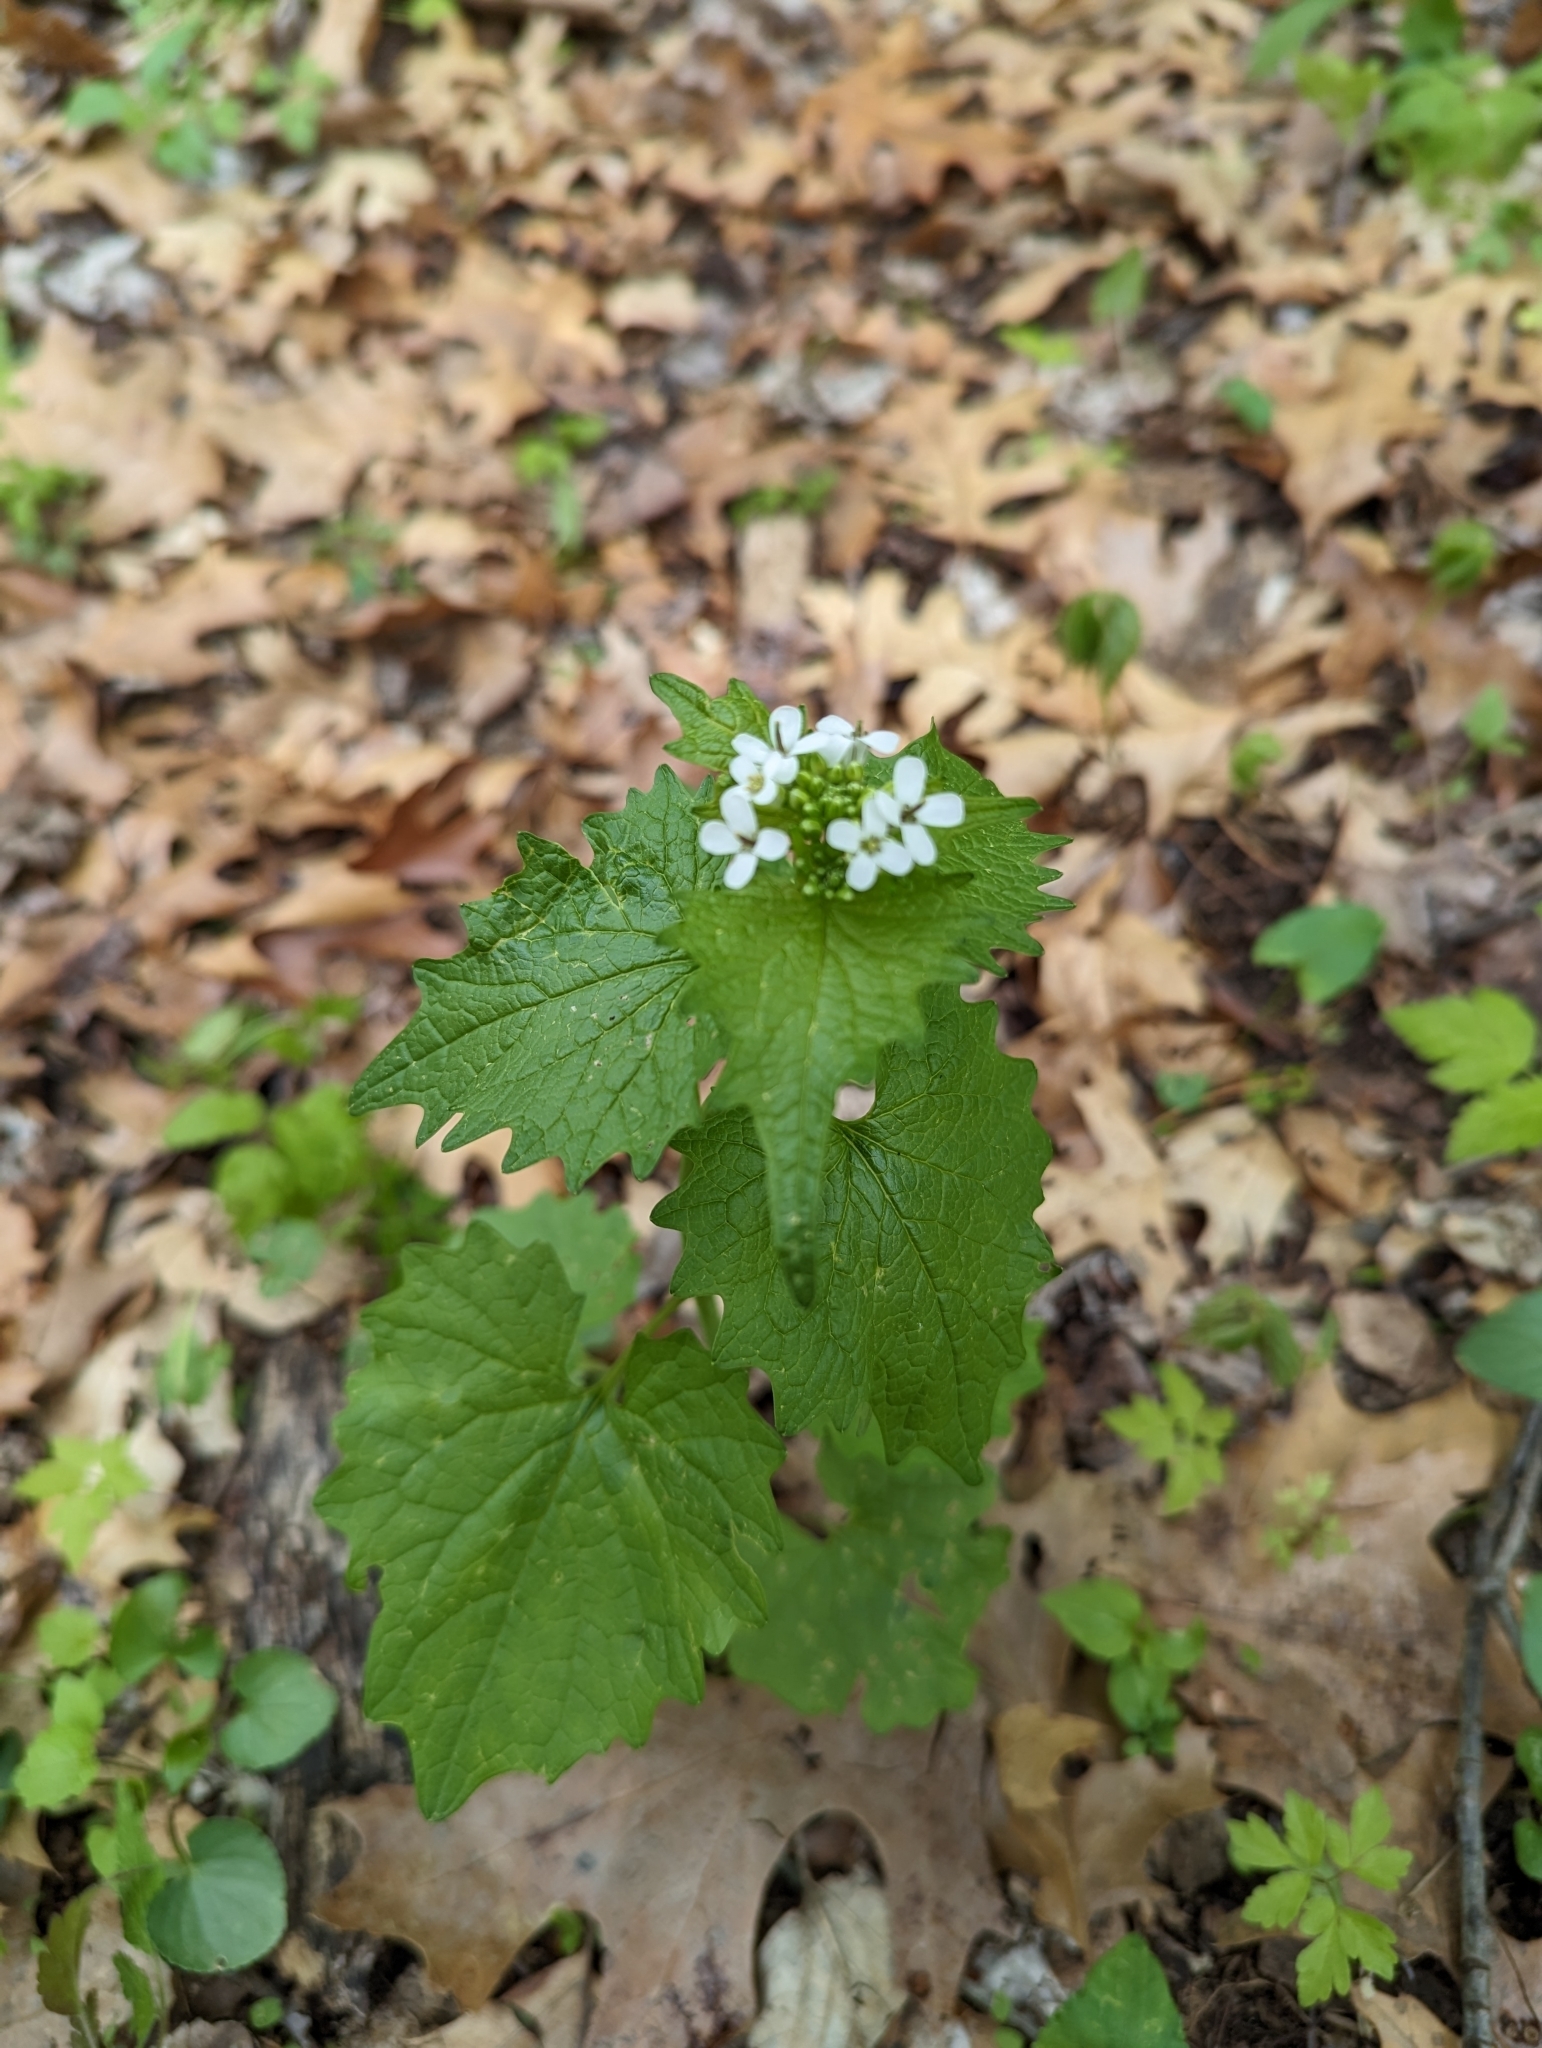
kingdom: Plantae
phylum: Tracheophyta
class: Magnoliopsida
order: Brassicales
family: Brassicaceae
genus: Alliaria
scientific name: Alliaria petiolata
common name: Garlic mustard
